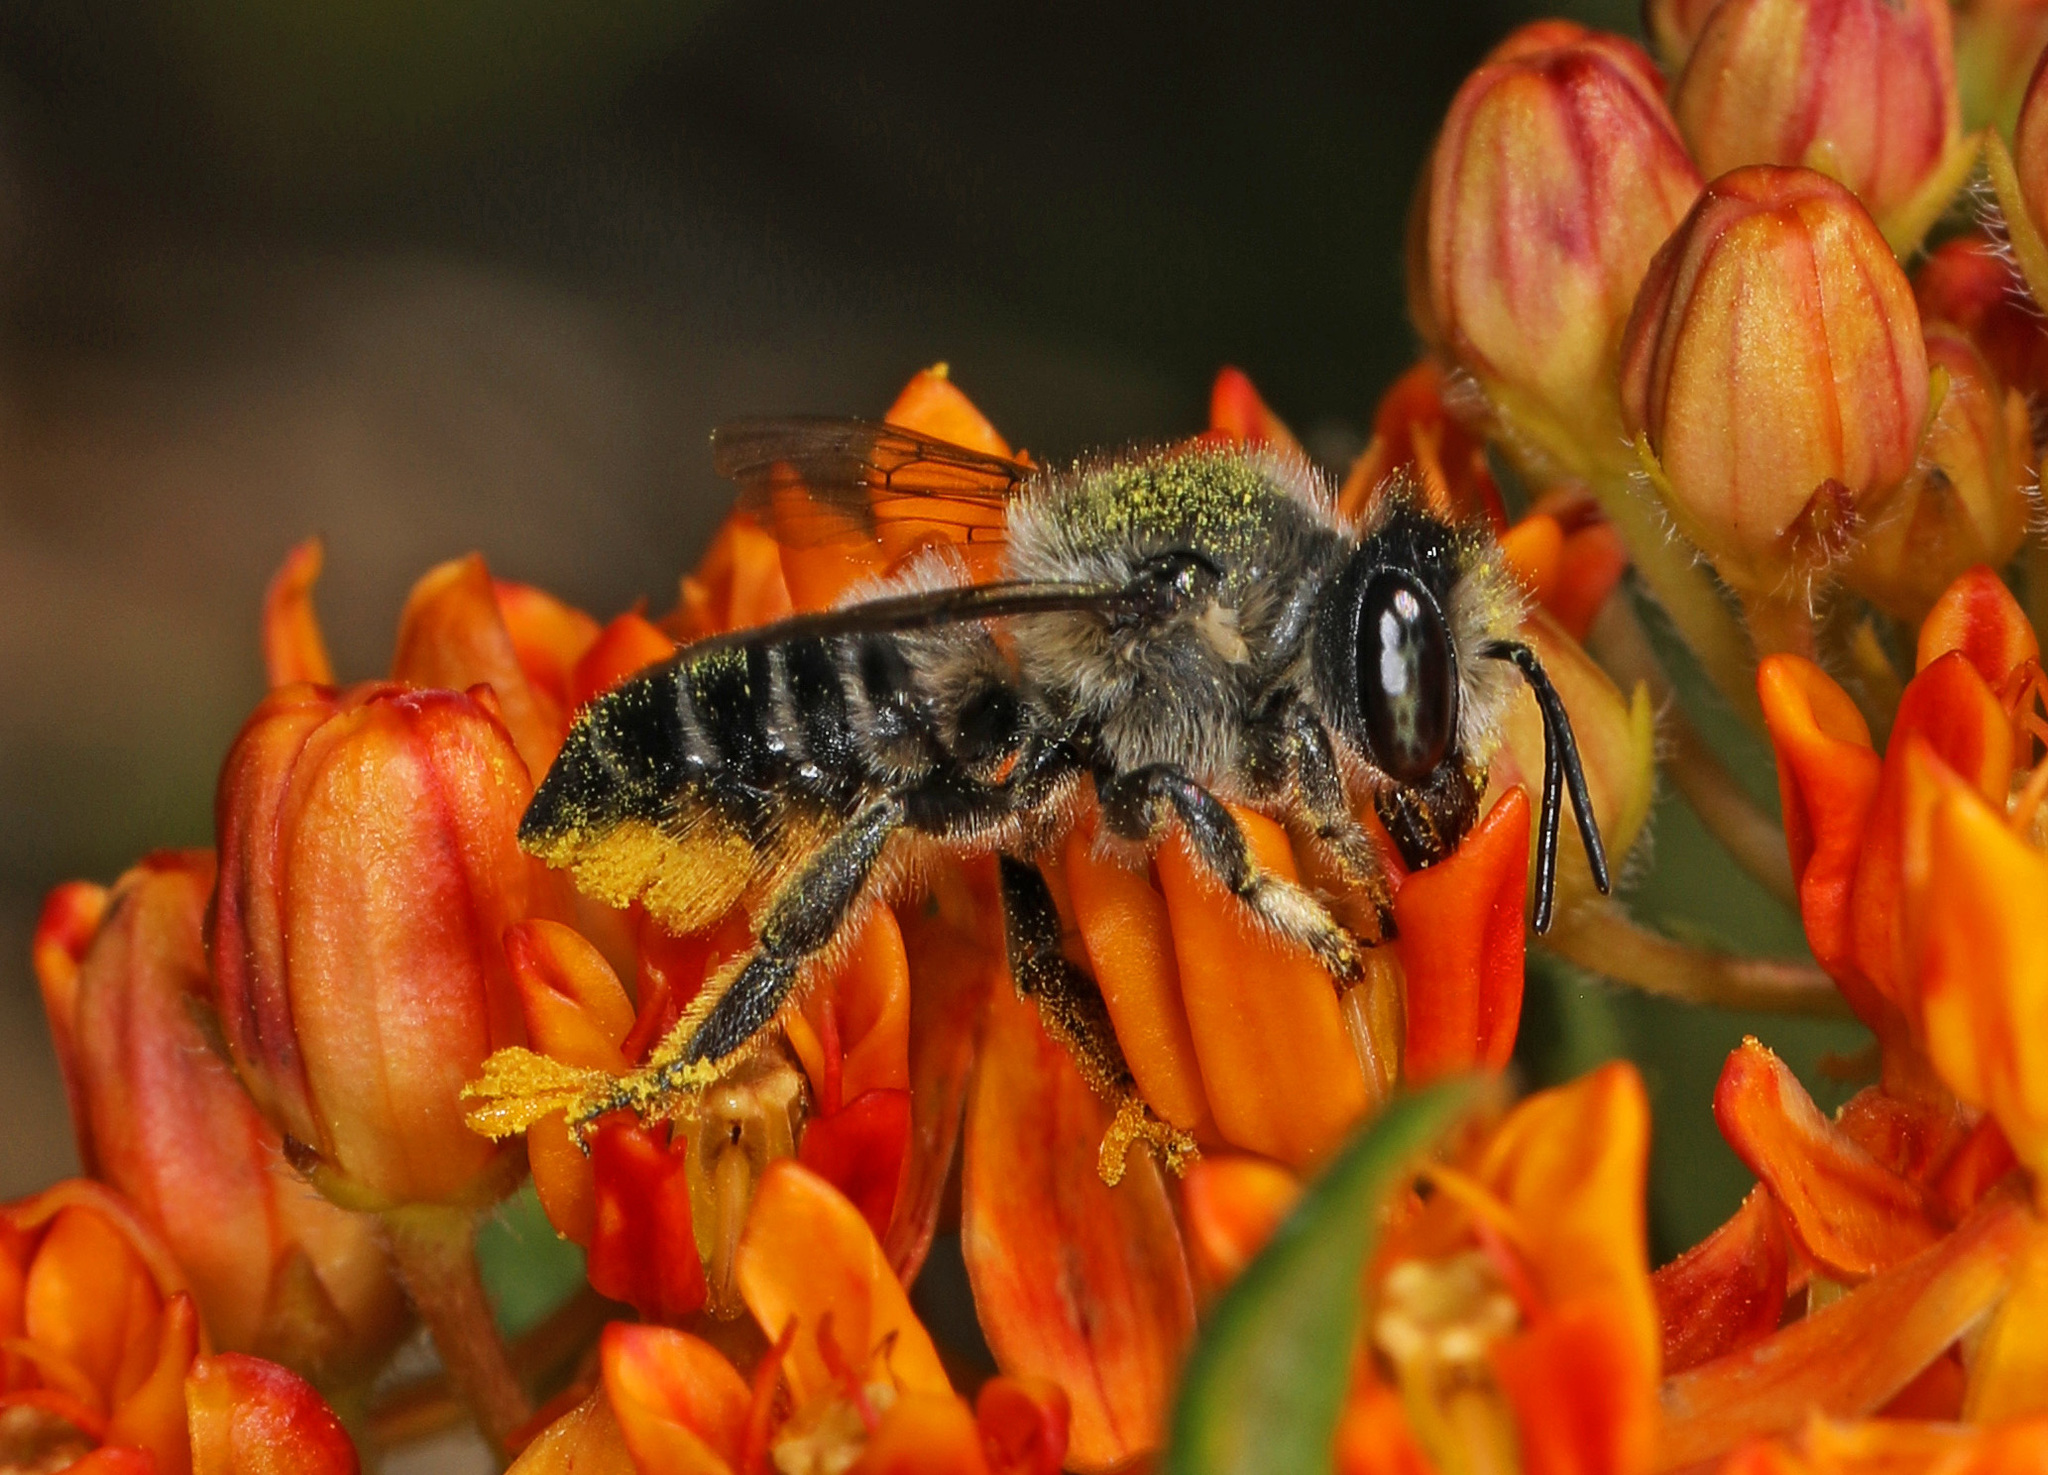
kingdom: Animalia
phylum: Arthropoda
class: Insecta
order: Hymenoptera
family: Megachilidae
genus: Megachile
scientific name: Megachile
